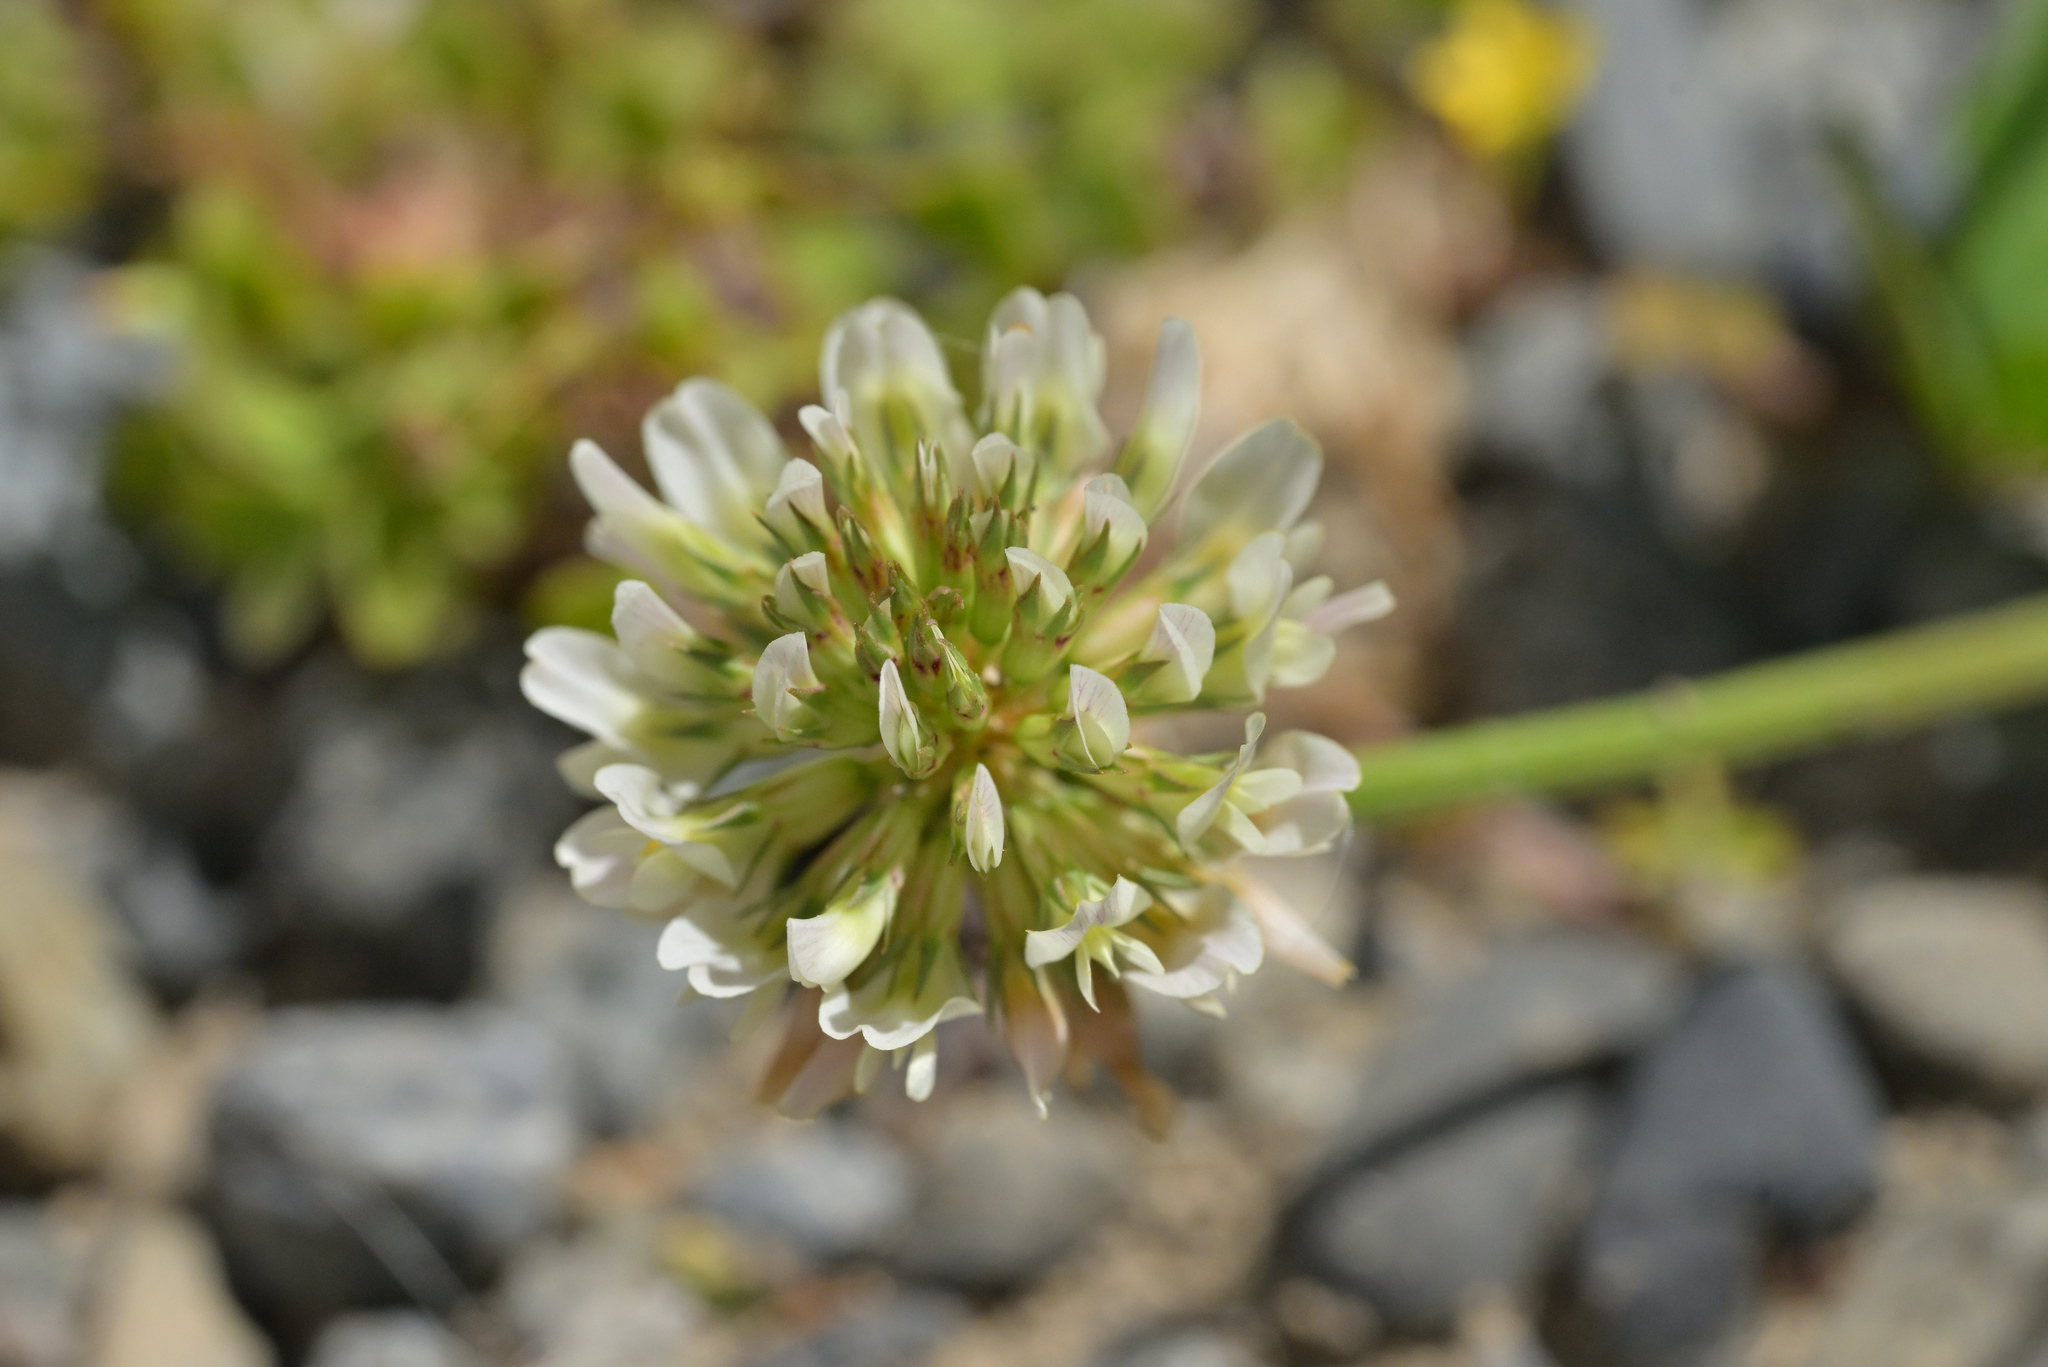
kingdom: Plantae
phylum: Tracheophyta
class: Magnoliopsida
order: Fabales
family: Fabaceae
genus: Trifolium
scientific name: Trifolium repens
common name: White clover
